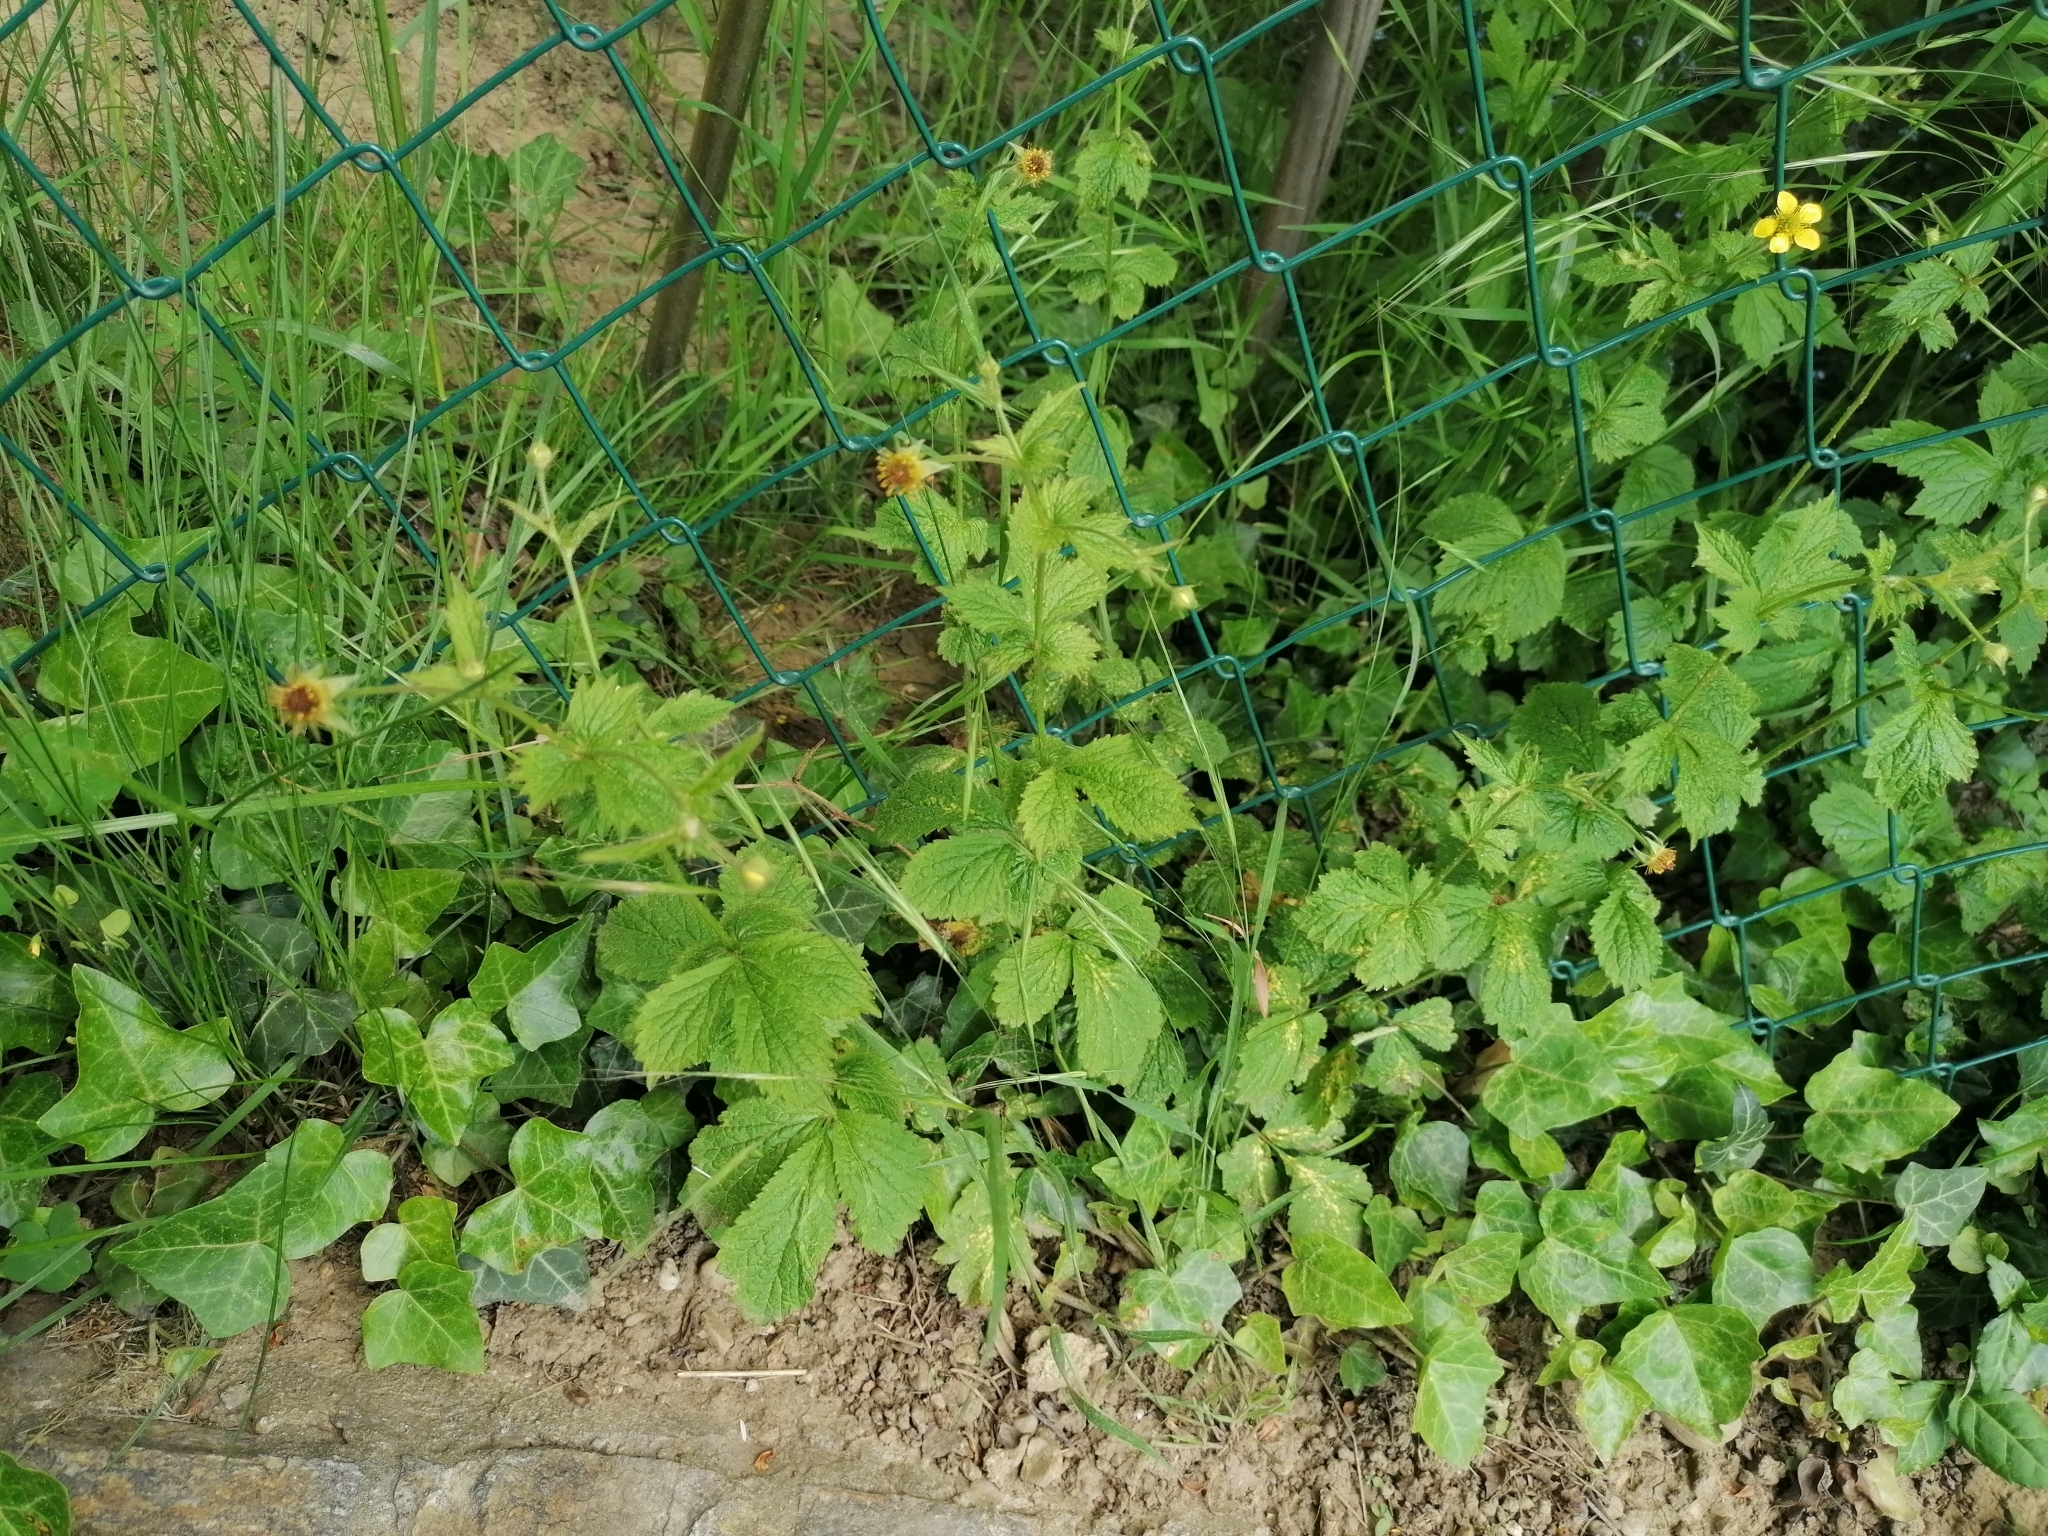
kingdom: Plantae
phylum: Tracheophyta
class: Magnoliopsida
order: Rosales
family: Rosaceae
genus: Geum
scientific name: Geum urbanum
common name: Wood avens
